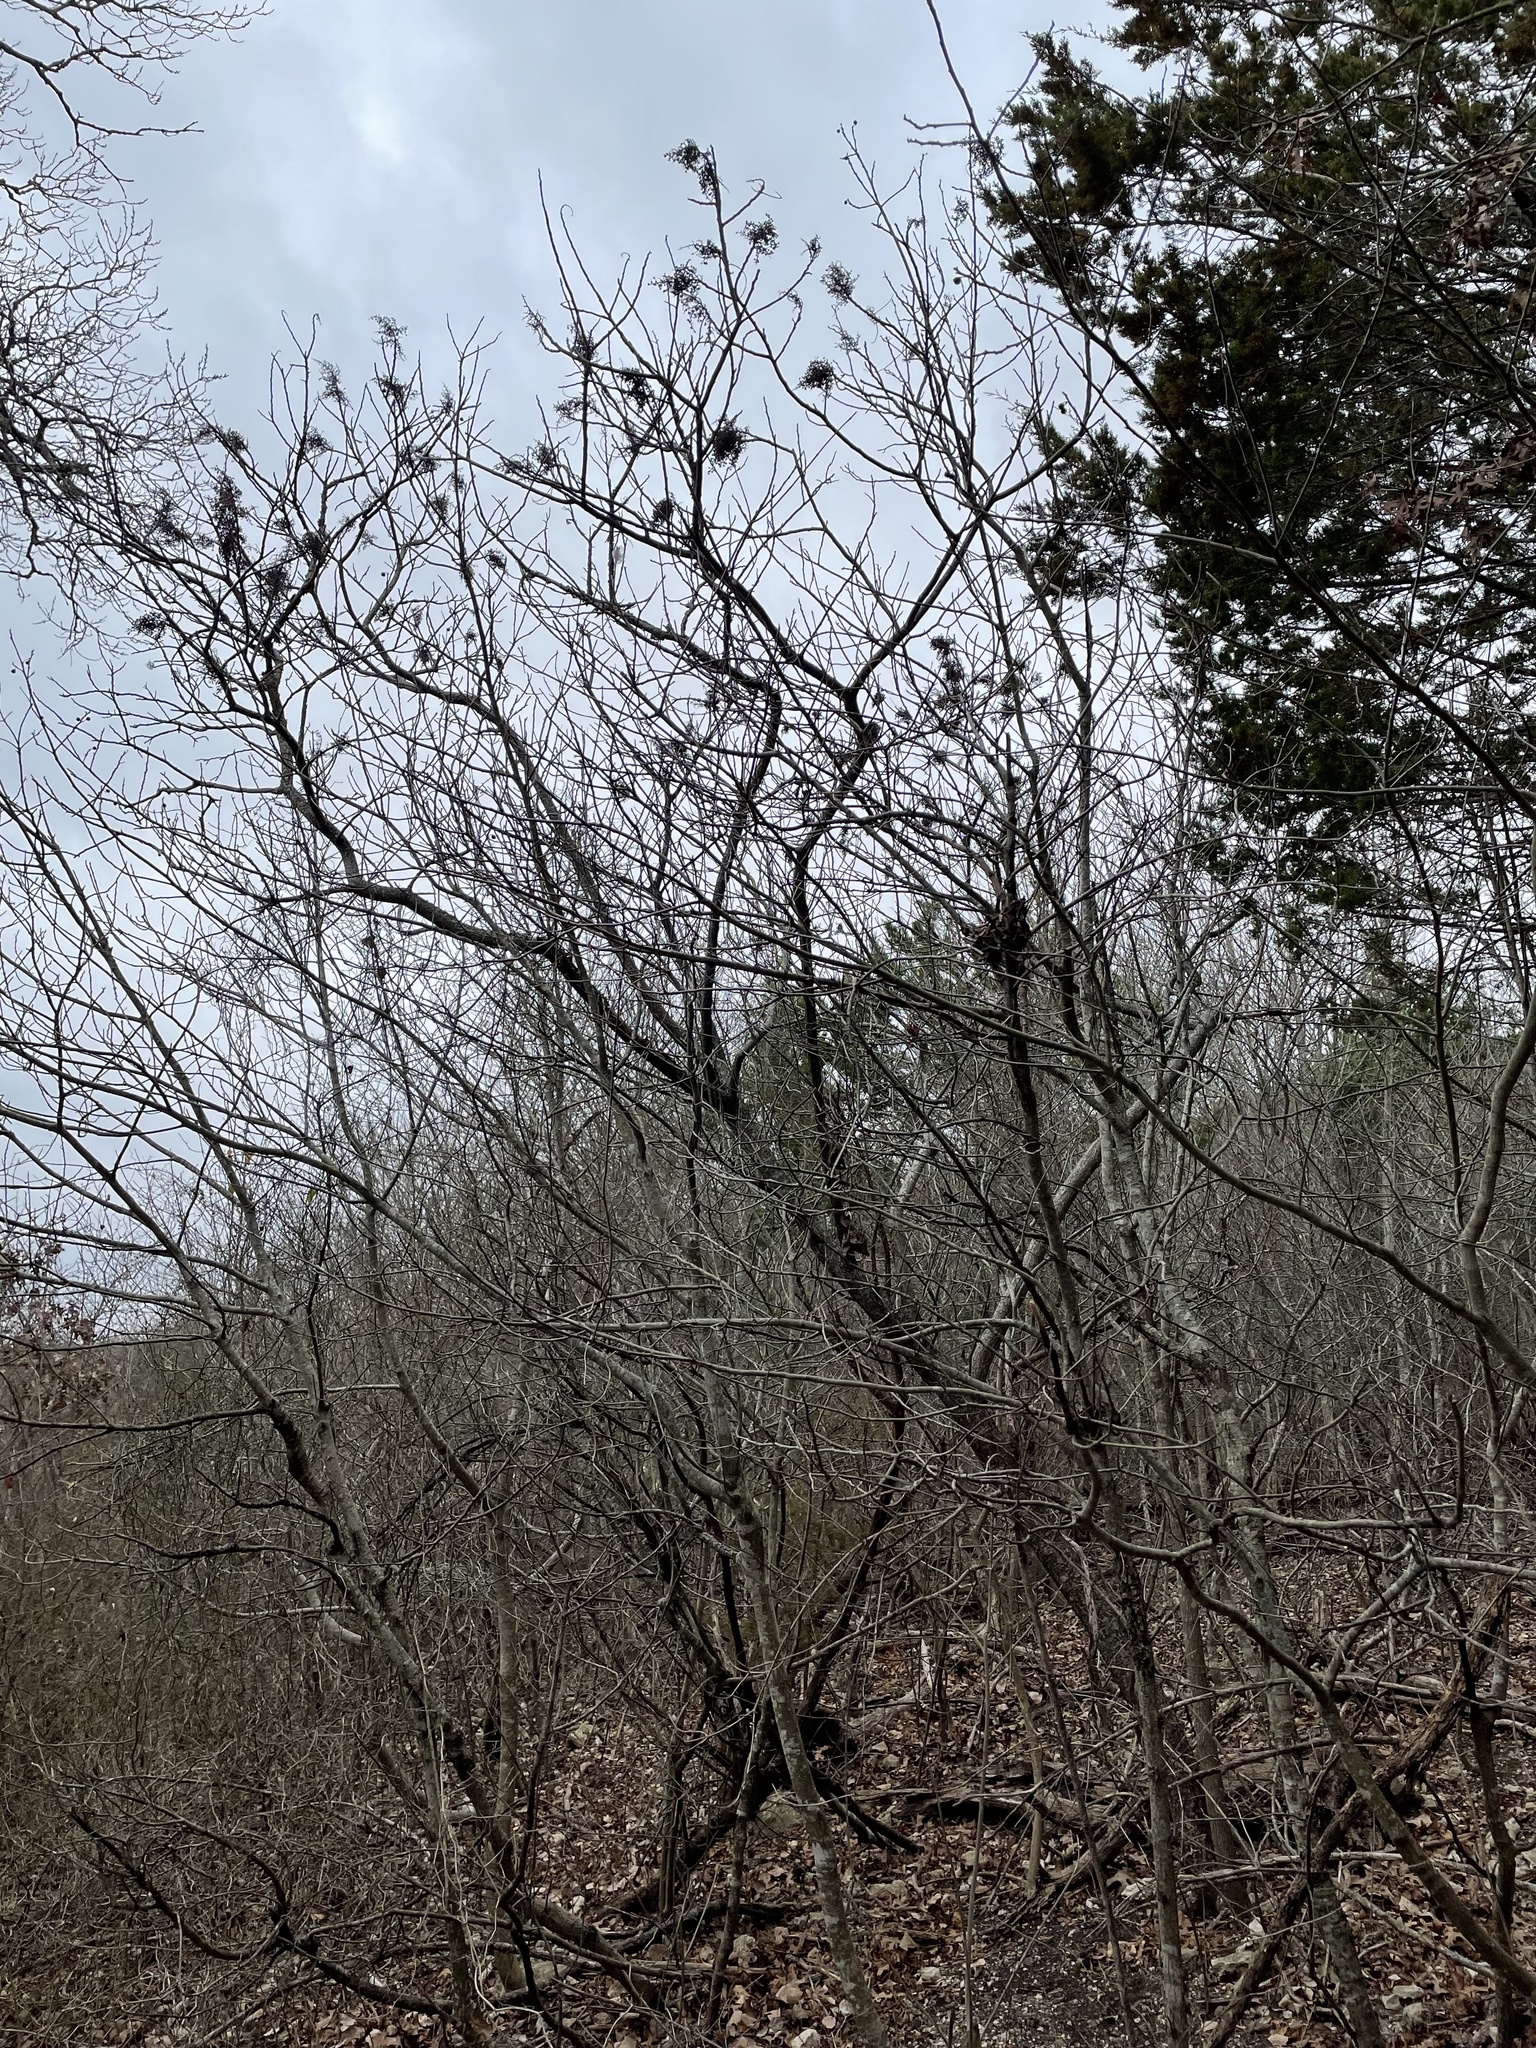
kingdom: Plantae
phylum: Tracheophyta
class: Magnoliopsida
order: Sapindales
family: Anacardiaceae
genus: Rhus
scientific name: Rhus lanceolata
